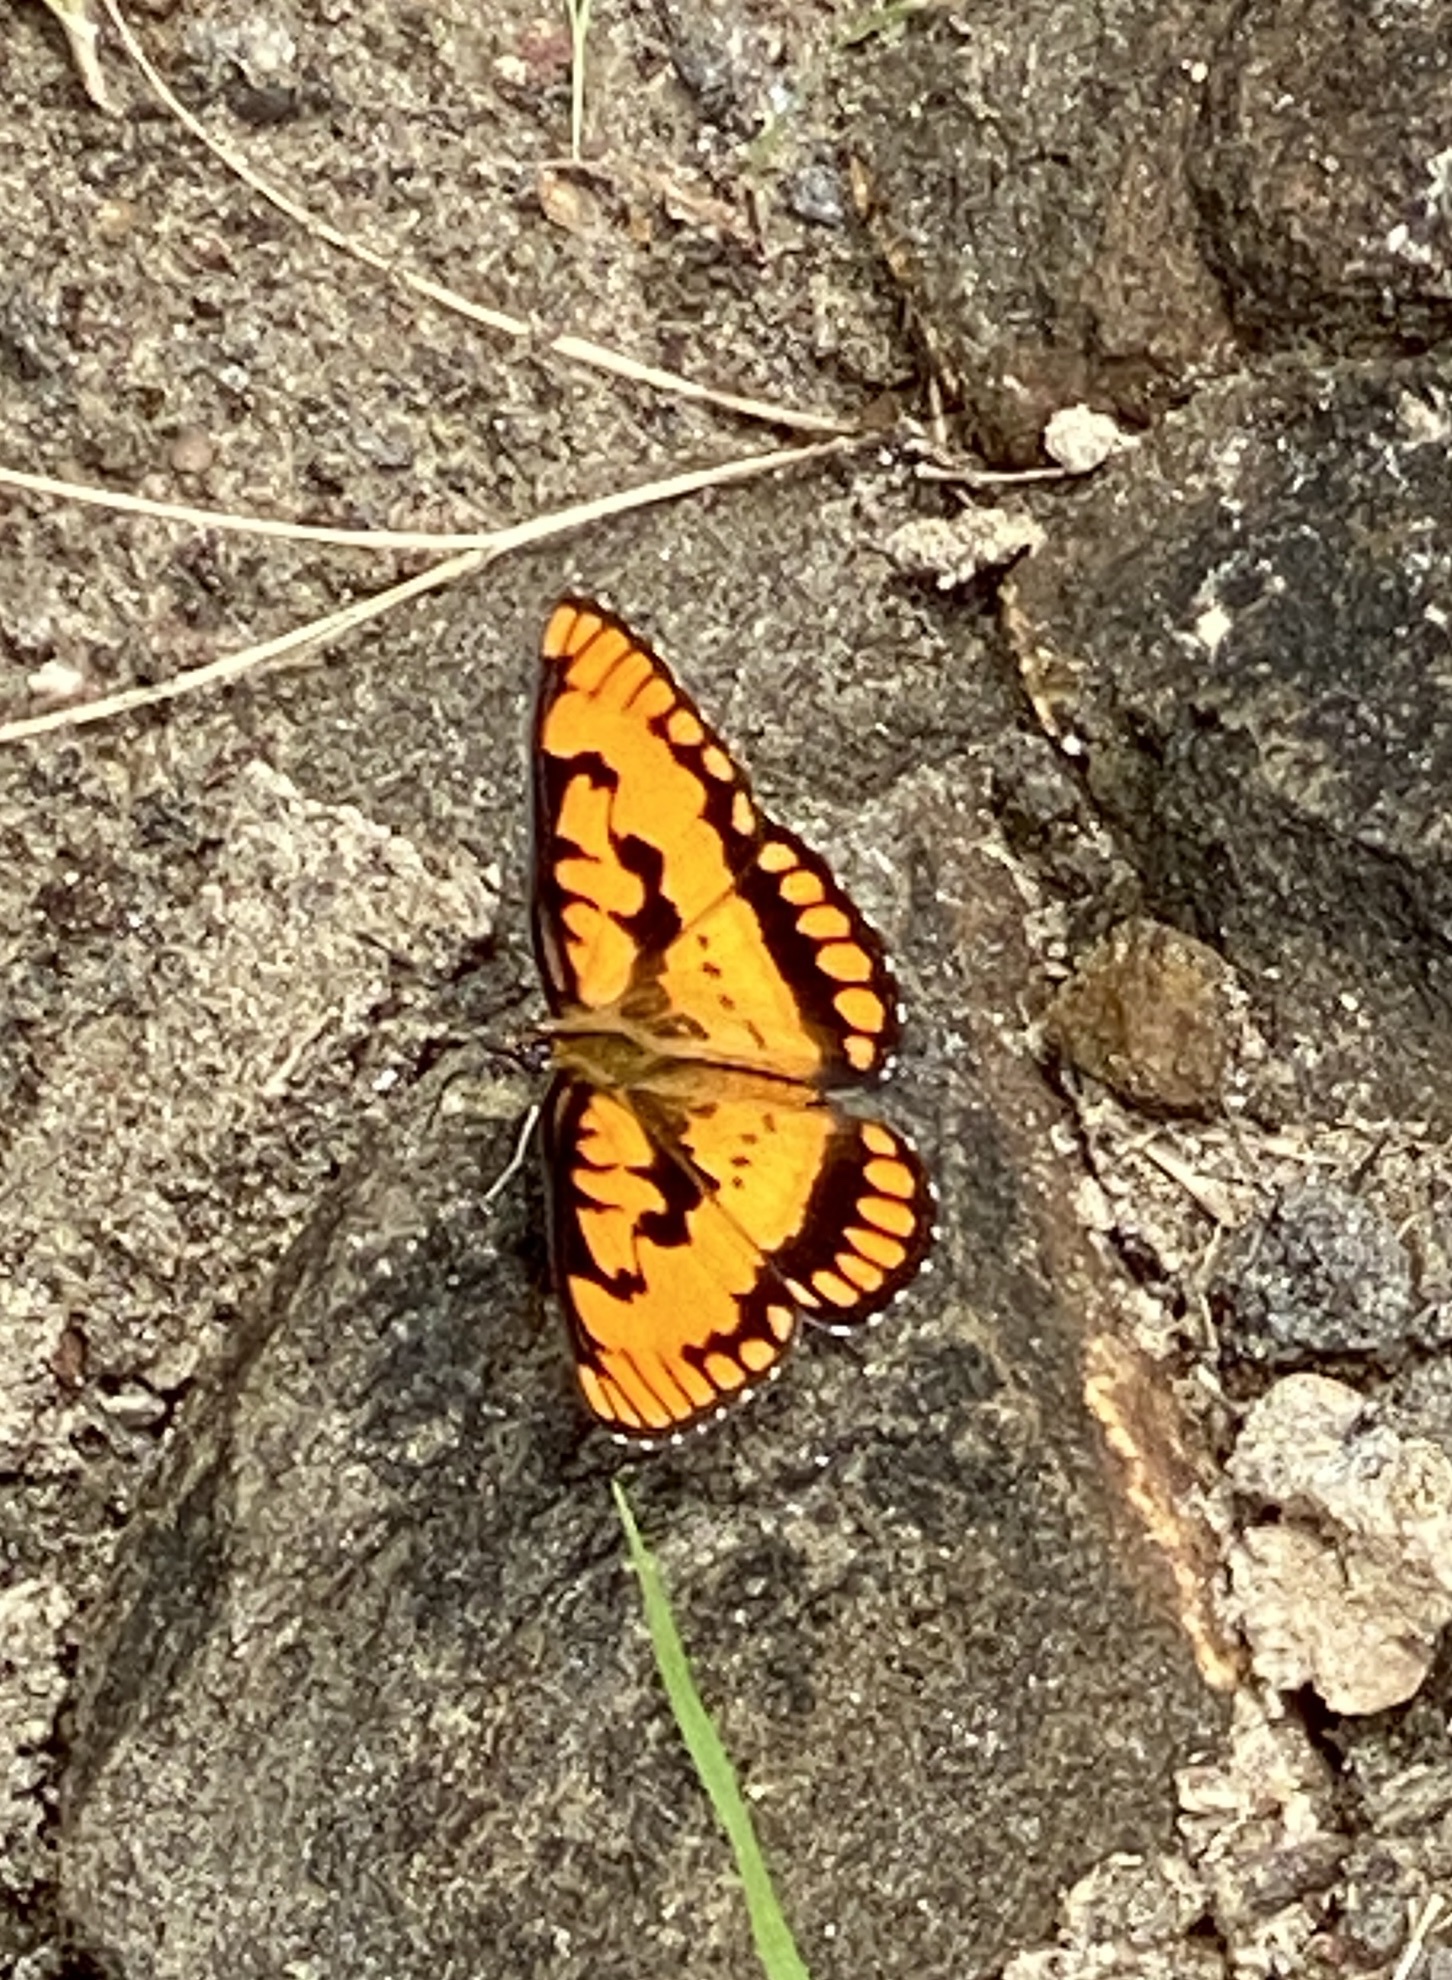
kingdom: Animalia
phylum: Arthropoda
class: Insecta
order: Lepidoptera
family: Nymphalidae
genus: Byblia
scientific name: Byblia ilithyia
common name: Spotted joker
